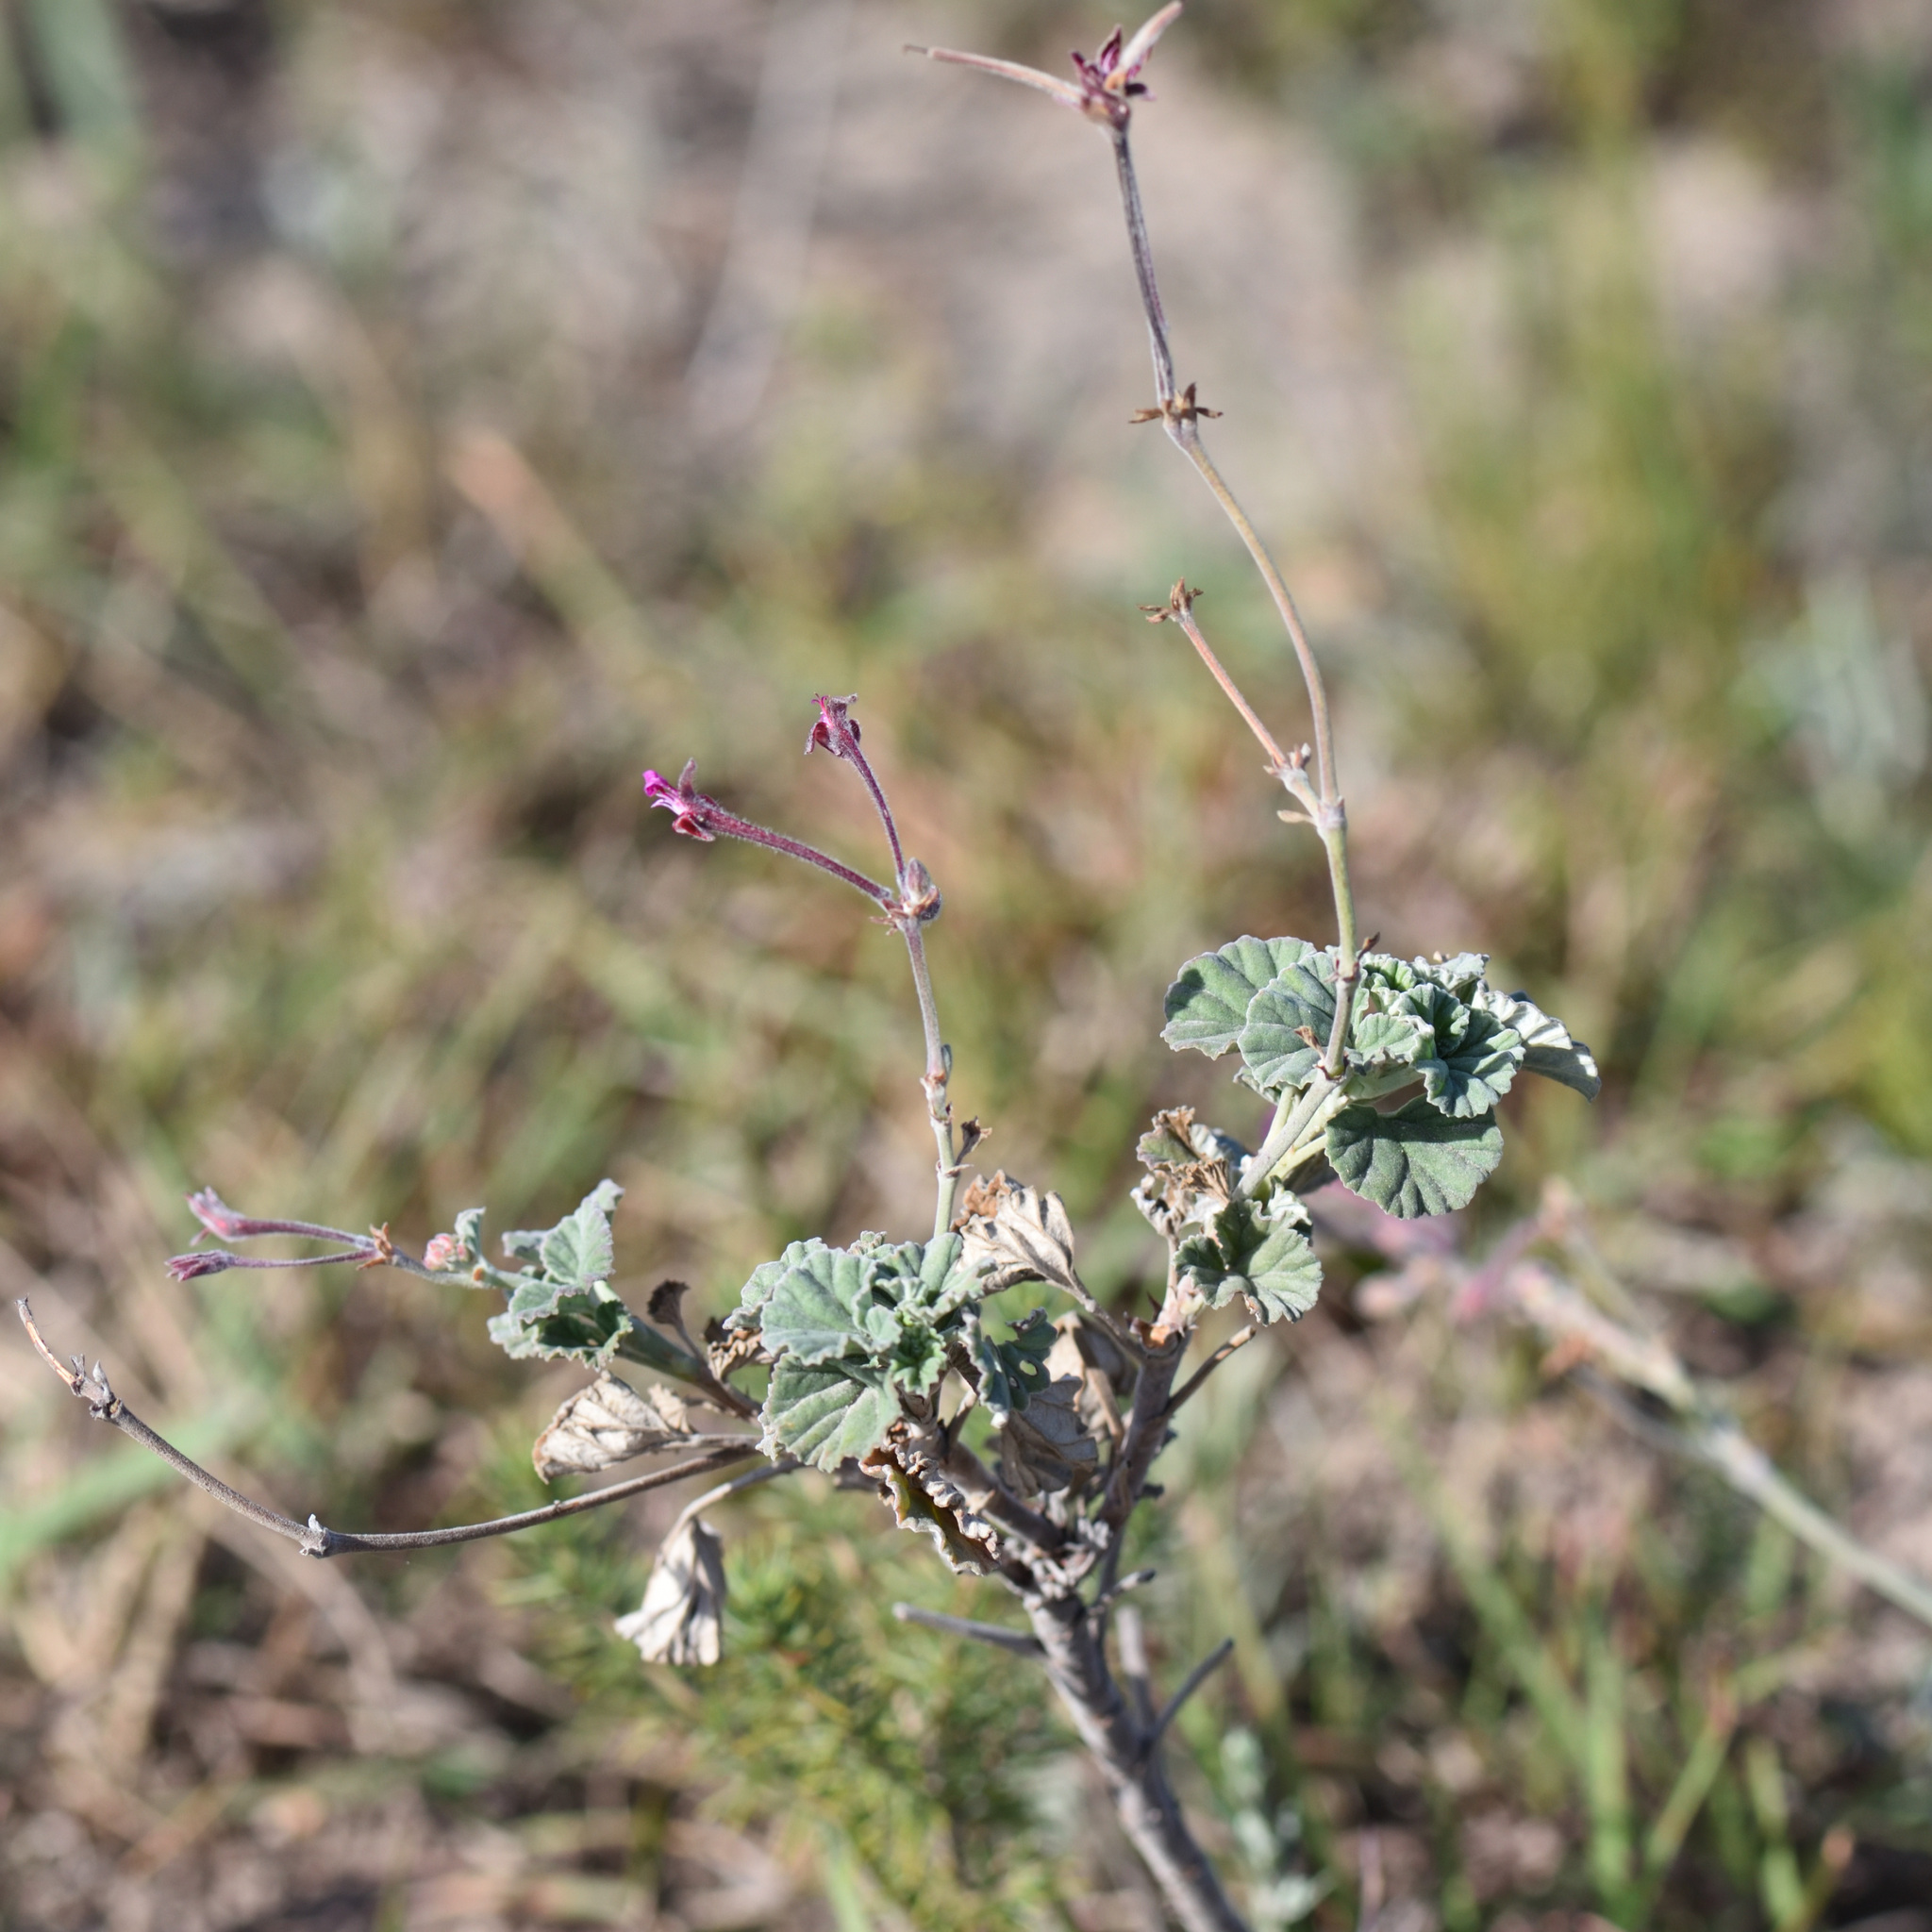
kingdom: Plantae
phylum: Tracheophyta
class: Magnoliopsida
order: Geraniales
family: Geraniaceae
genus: Pelargonium
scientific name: Pelargonium reniforme
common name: Kidney-leaf pelargonium
